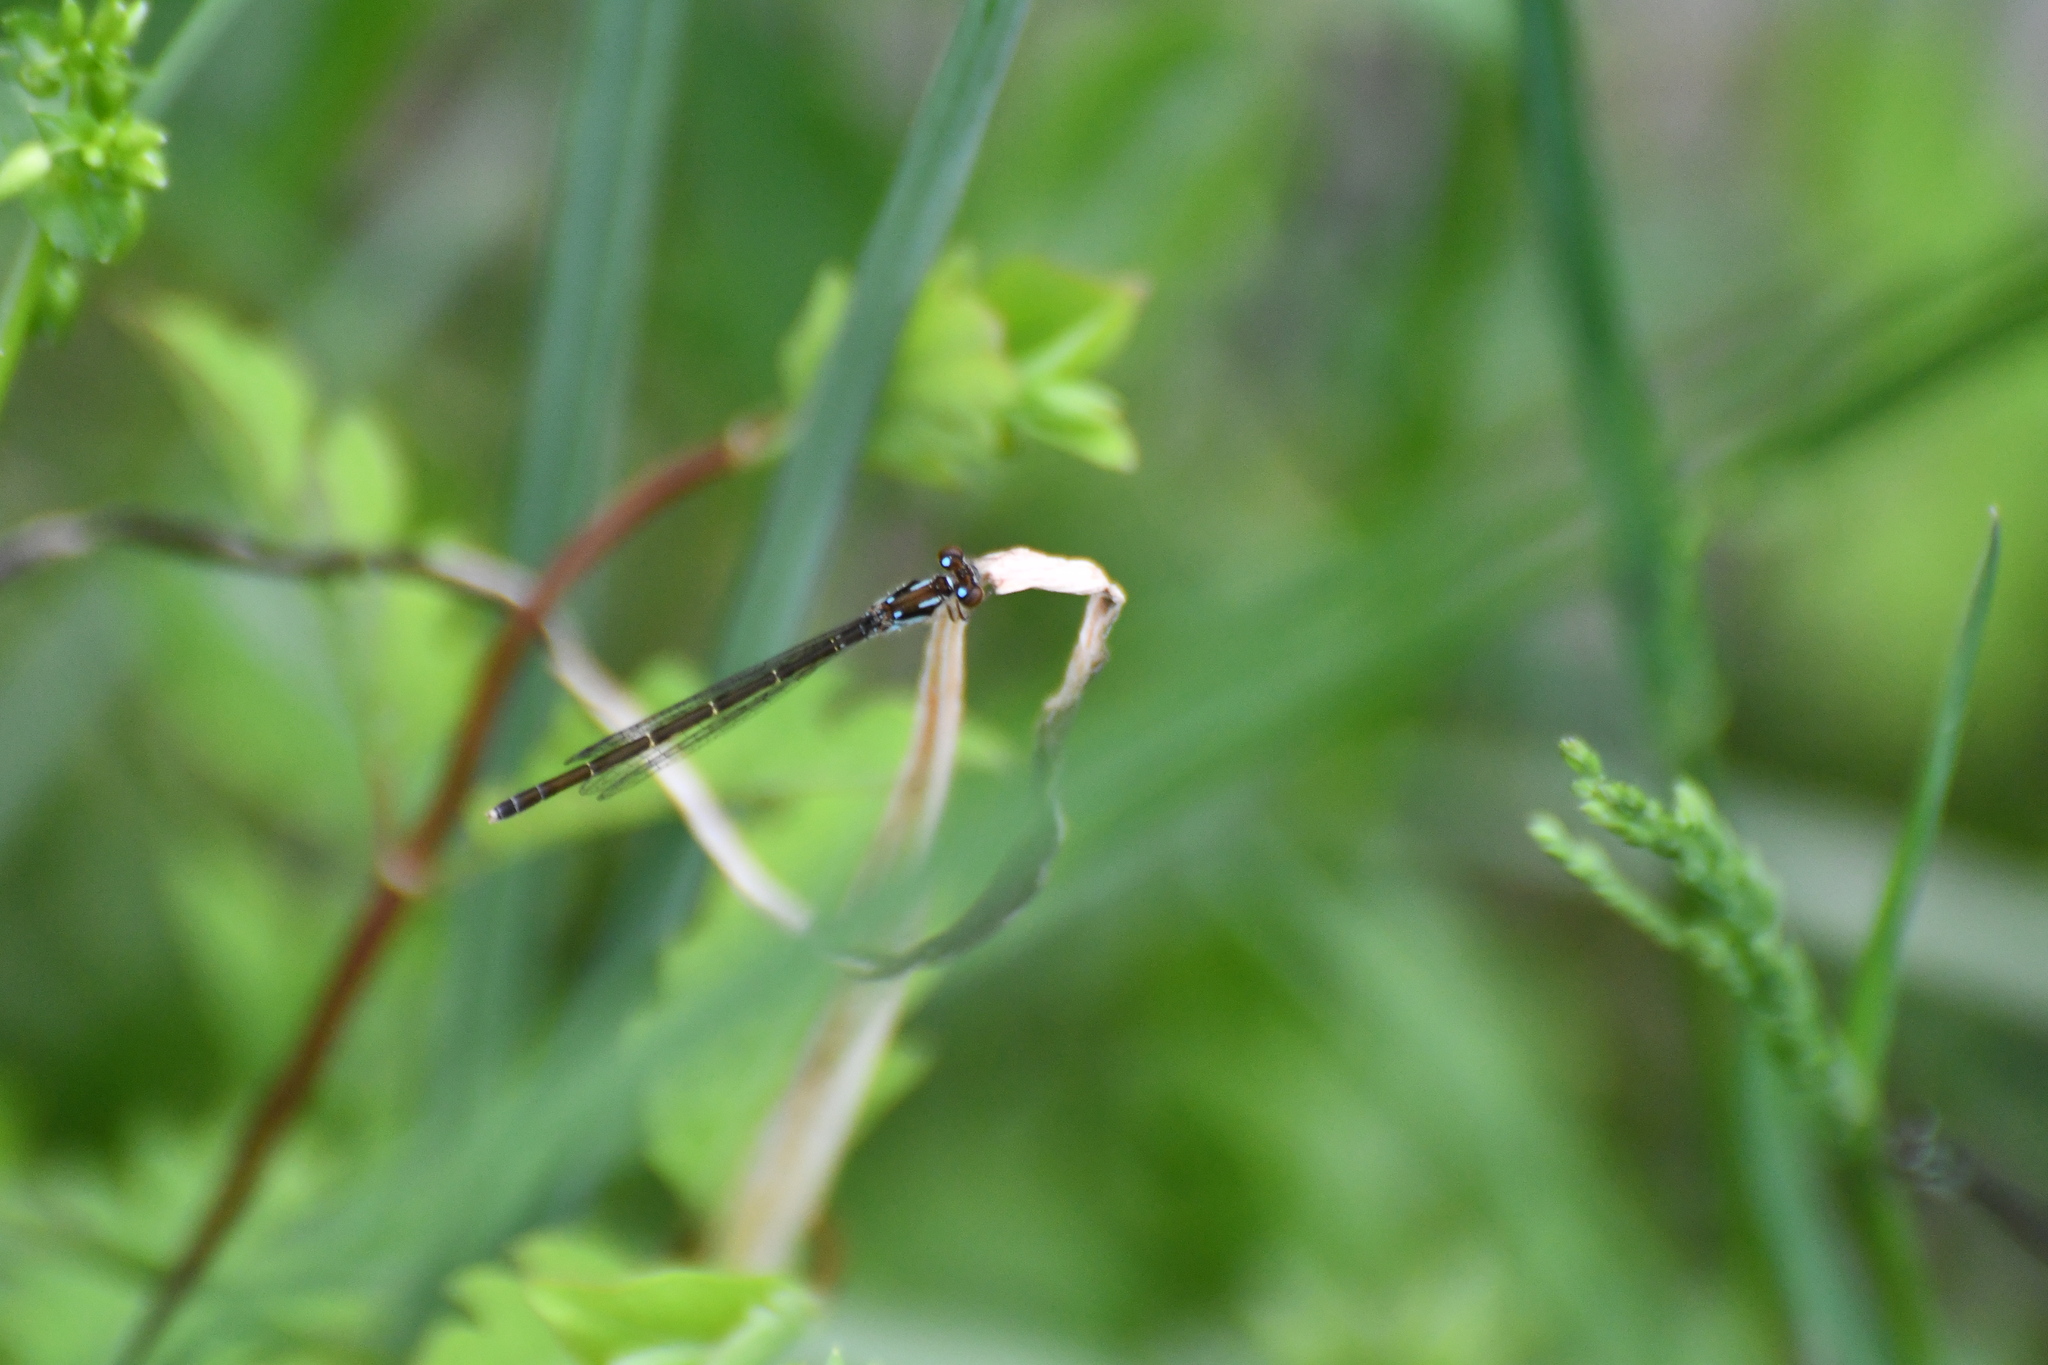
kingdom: Animalia
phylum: Arthropoda
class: Insecta
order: Odonata
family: Coenagrionidae
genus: Ischnura
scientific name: Ischnura posita
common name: Fragile forktail
